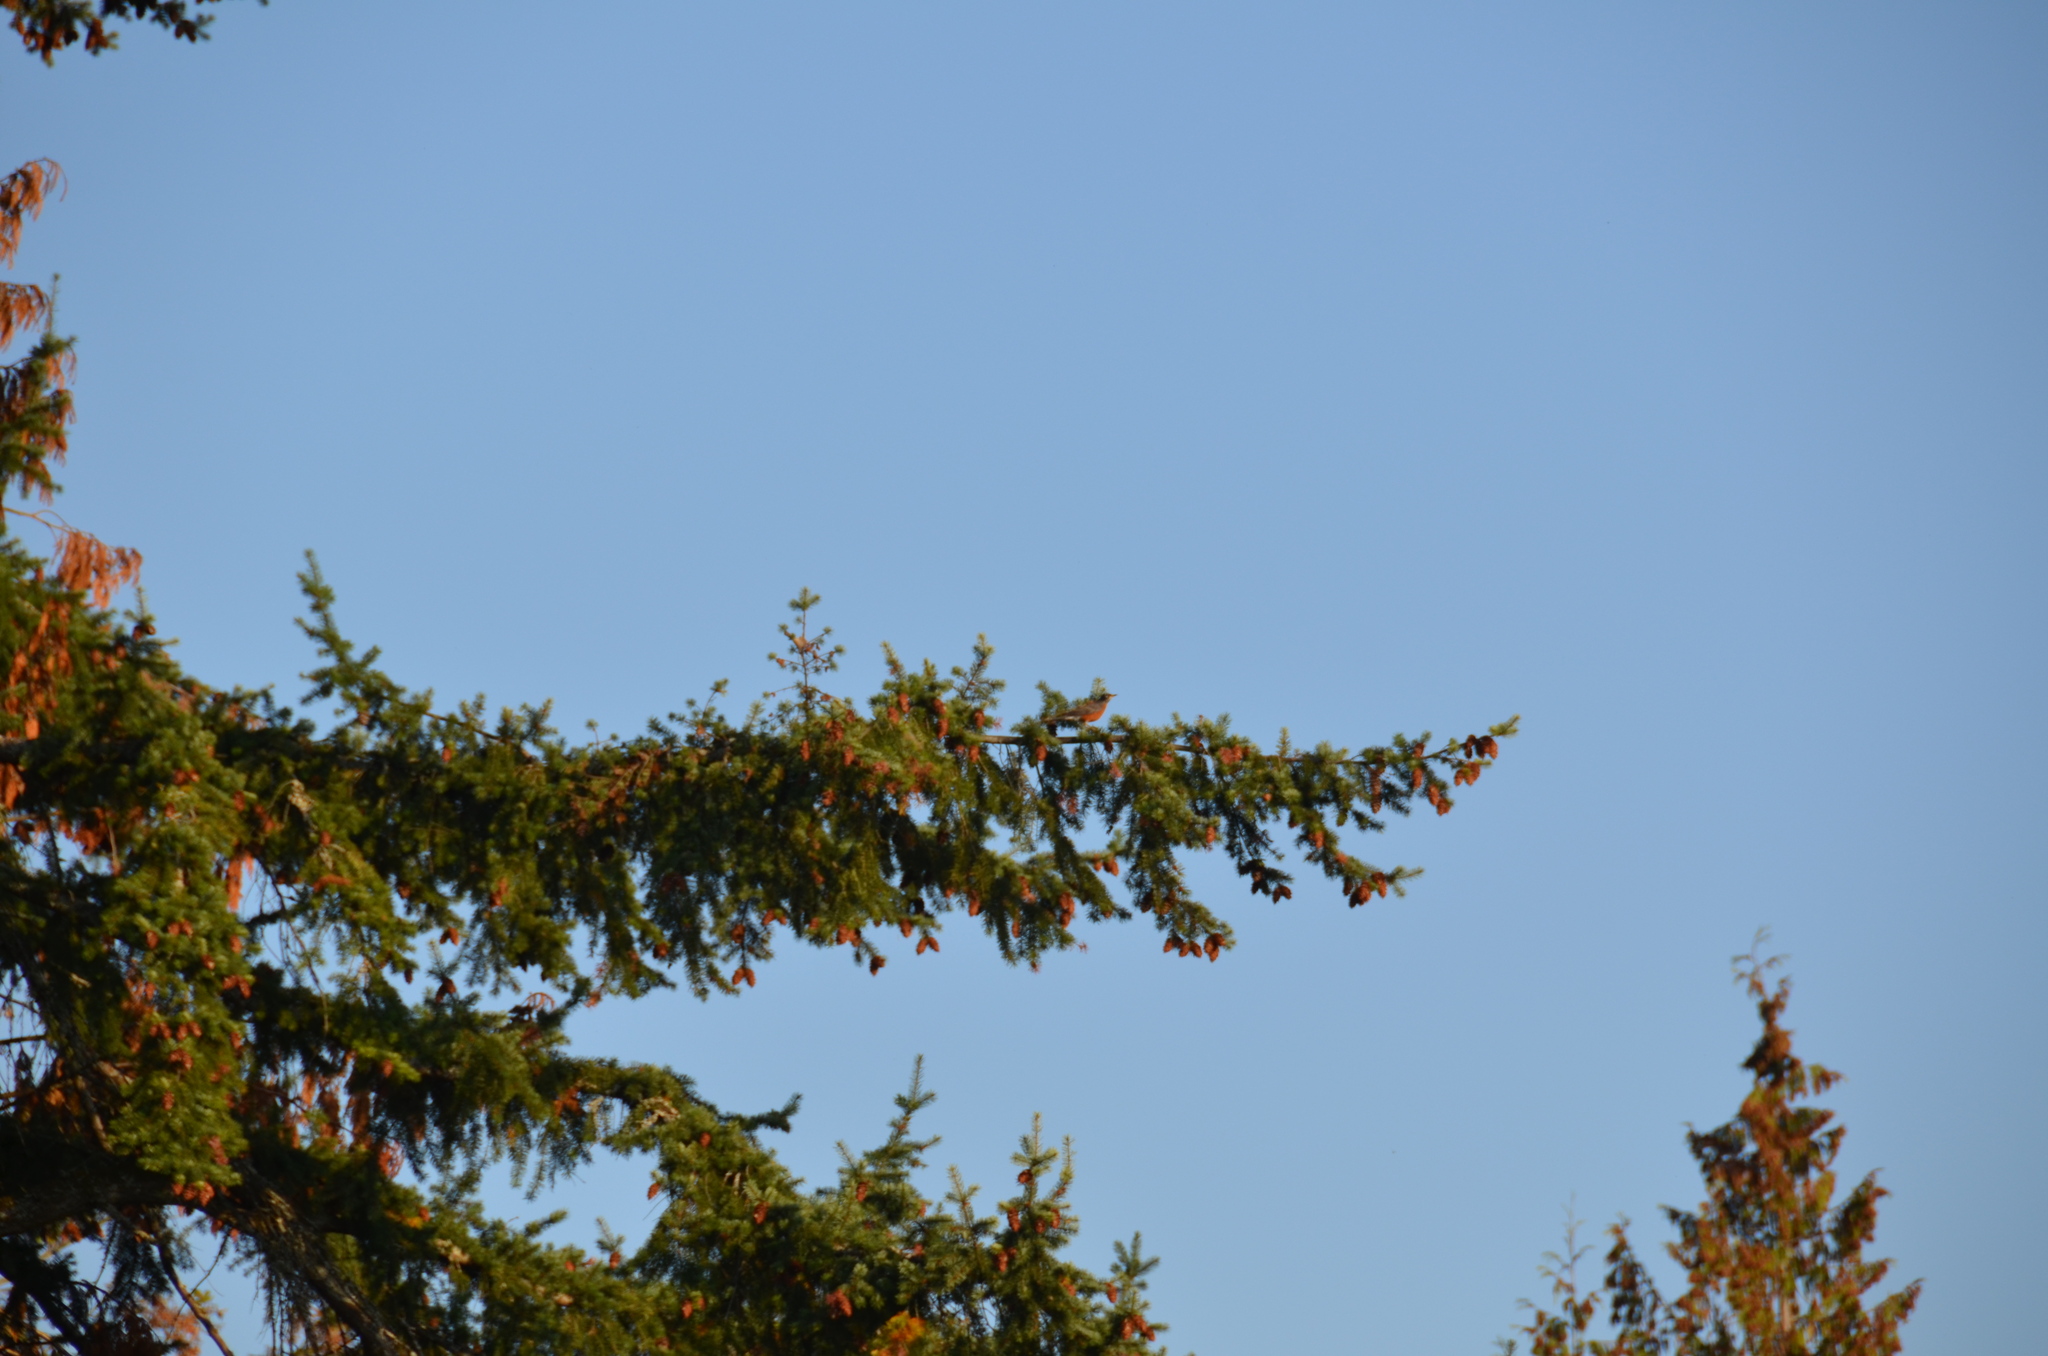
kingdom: Animalia
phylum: Chordata
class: Aves
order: Passeriformes
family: Turdidae
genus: Turdus
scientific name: Turdus migratorius
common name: American robin
